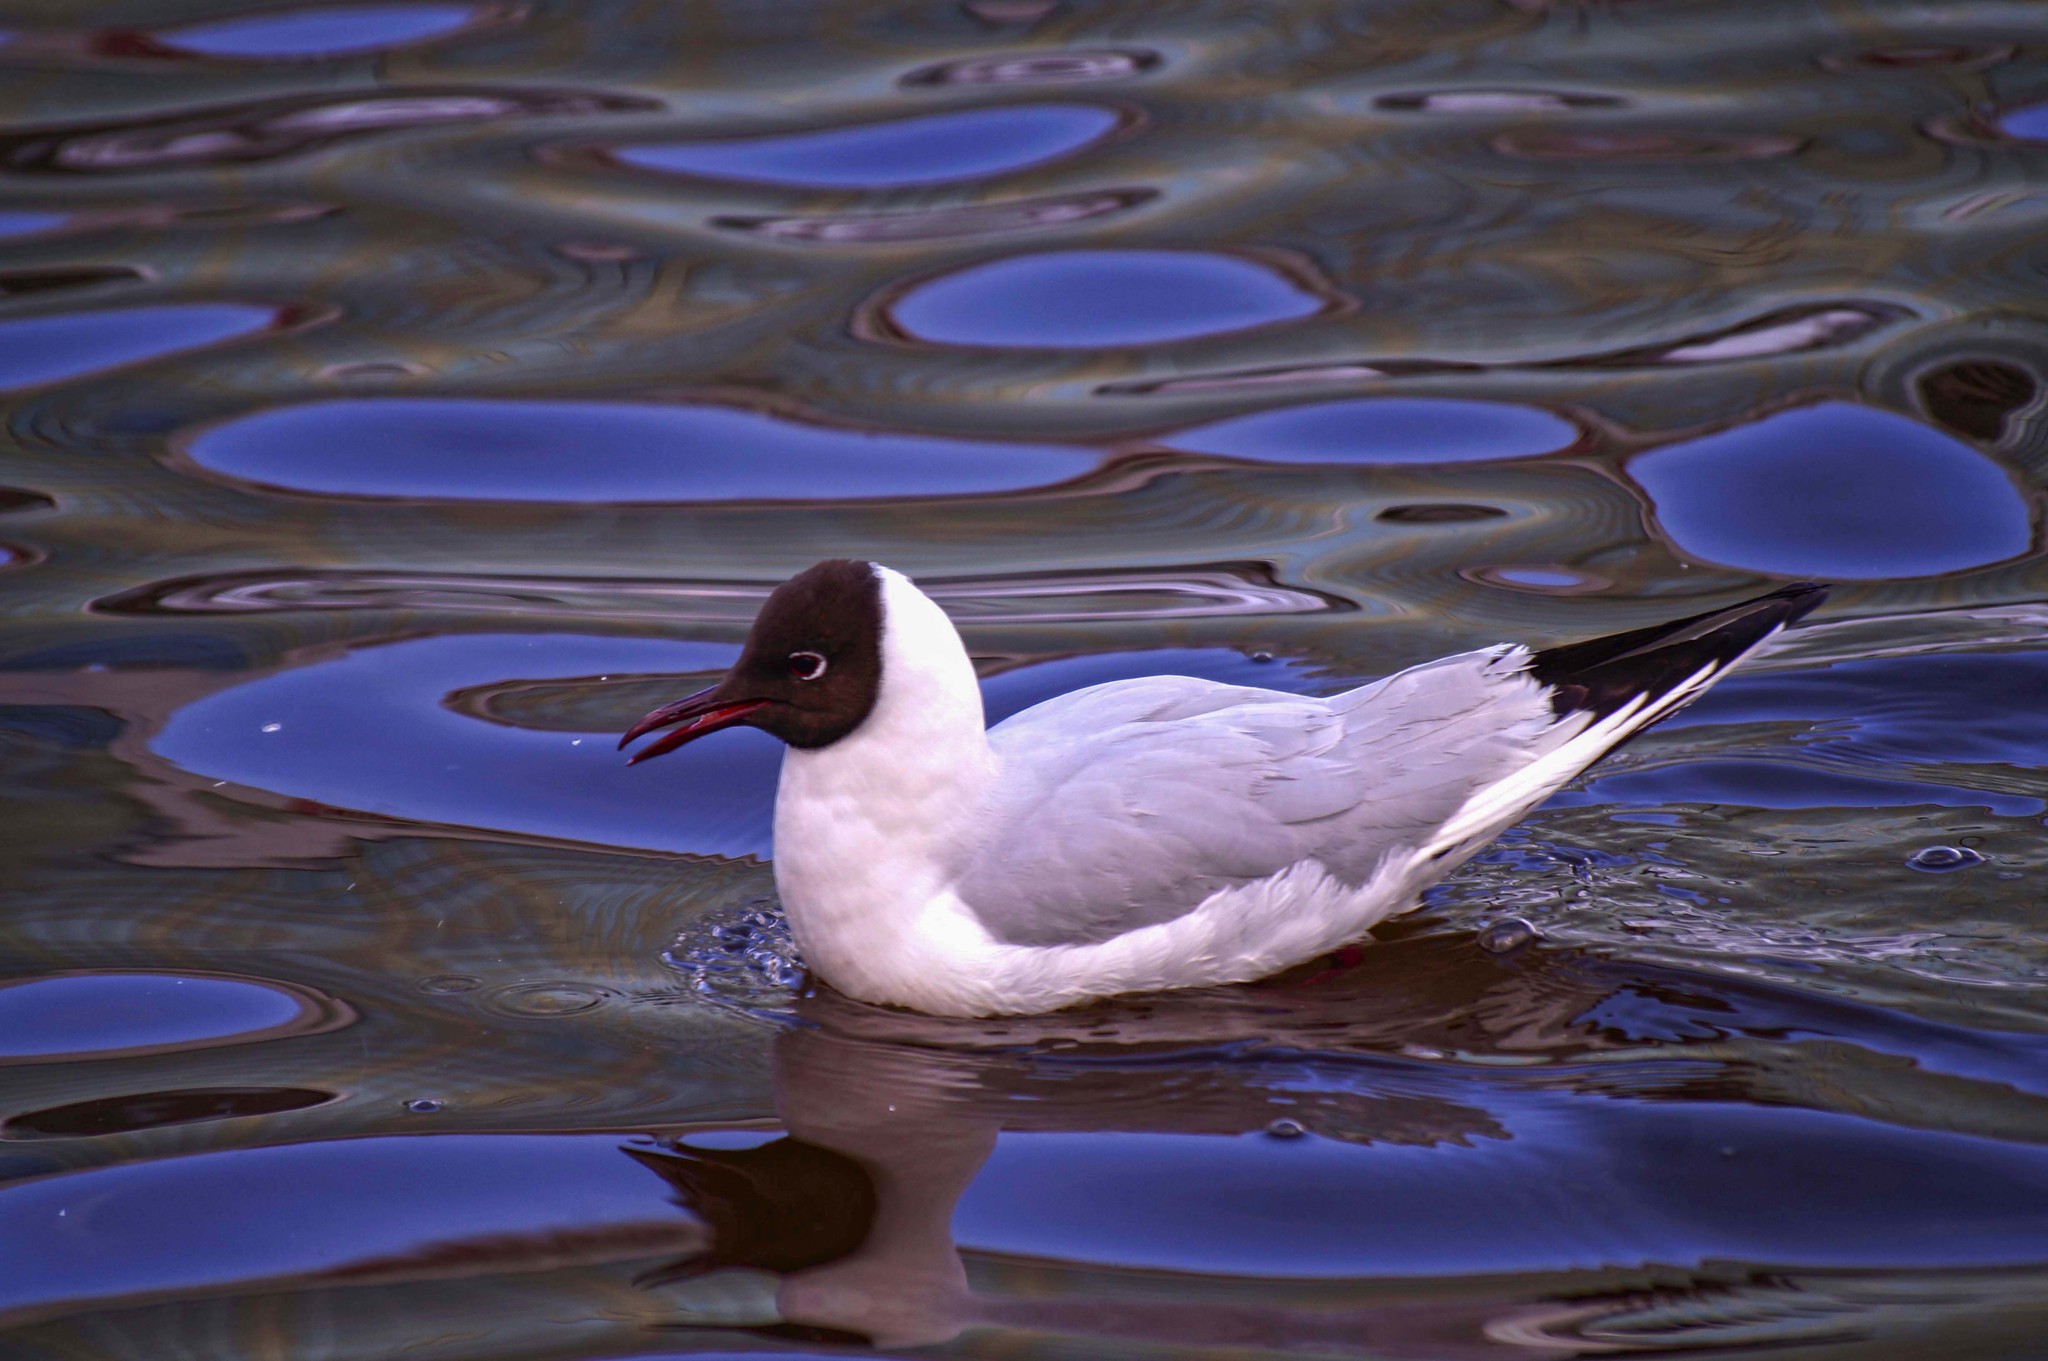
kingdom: Animalia
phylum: Chordata
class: Aves
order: Charadriiformes
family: Laridae
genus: Chroicocephalus
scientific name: Chroicocephalus ridibundus
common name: Black-headed gull
